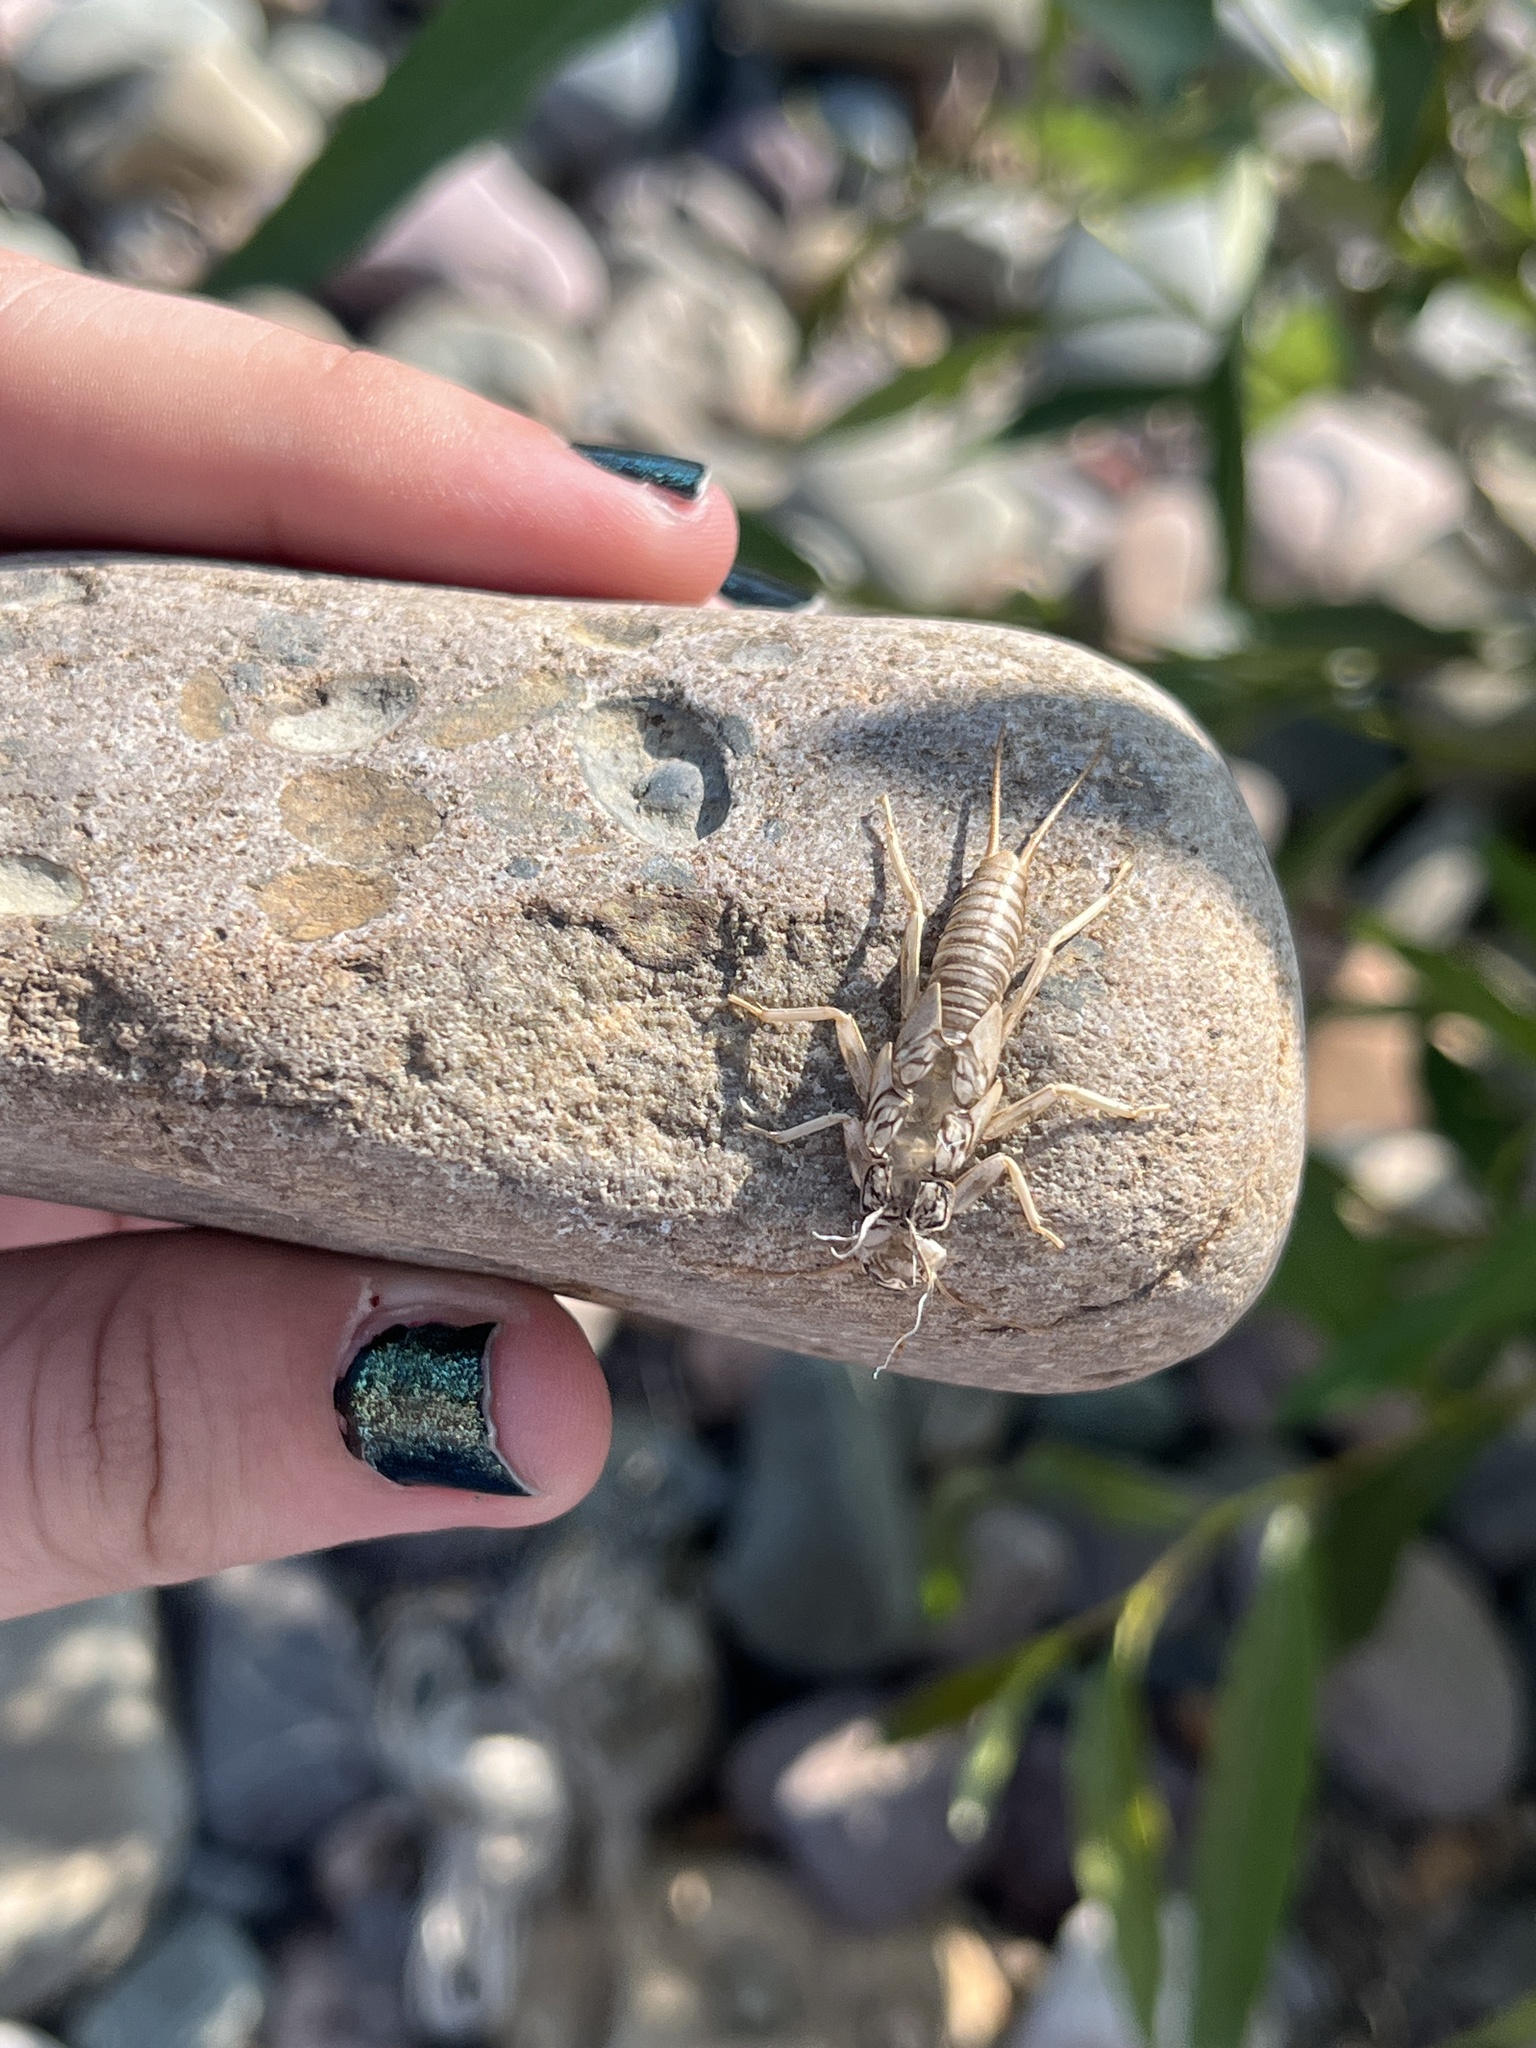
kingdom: Animalia
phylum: Arthropoda
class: Insecta
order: Plecoptera
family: Perlidae
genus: Claassenia
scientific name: Claassenia sabulosa
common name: Shortwing stone
